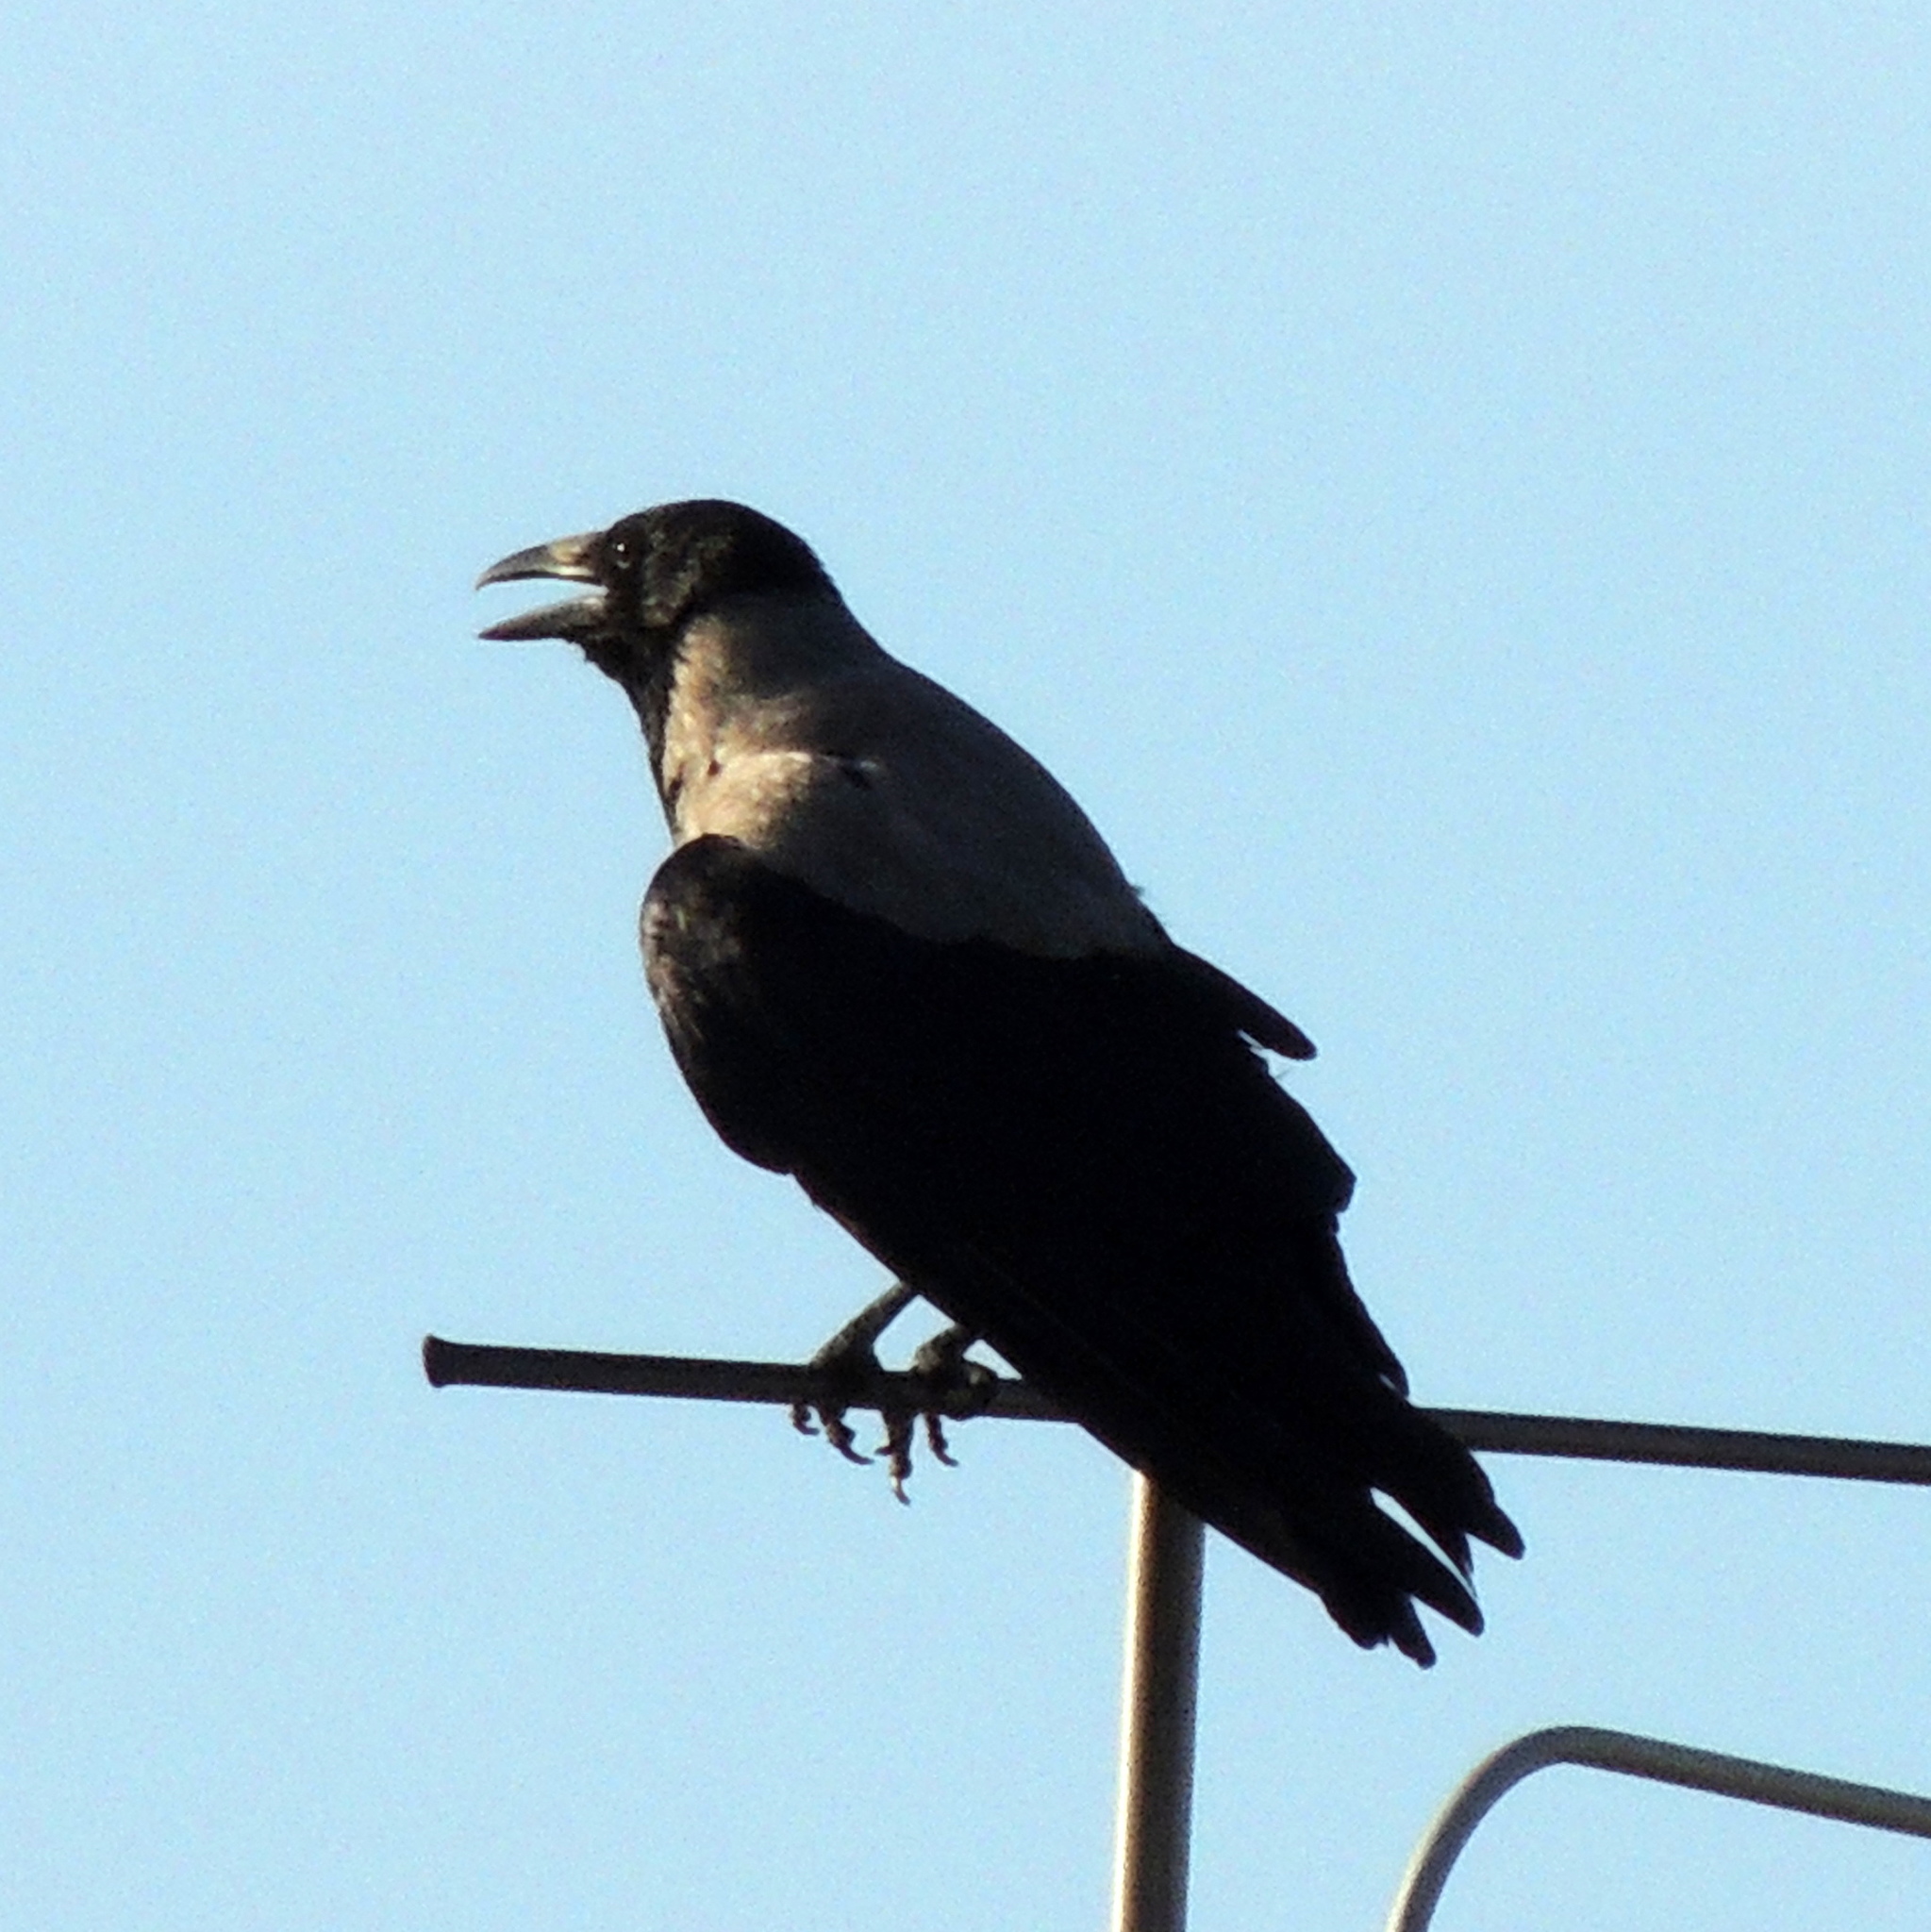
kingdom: Animalia
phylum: Chordata
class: Aves
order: Passeriformes
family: Corvidae
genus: Corvus
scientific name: Corvus cornix
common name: Hooded crow
